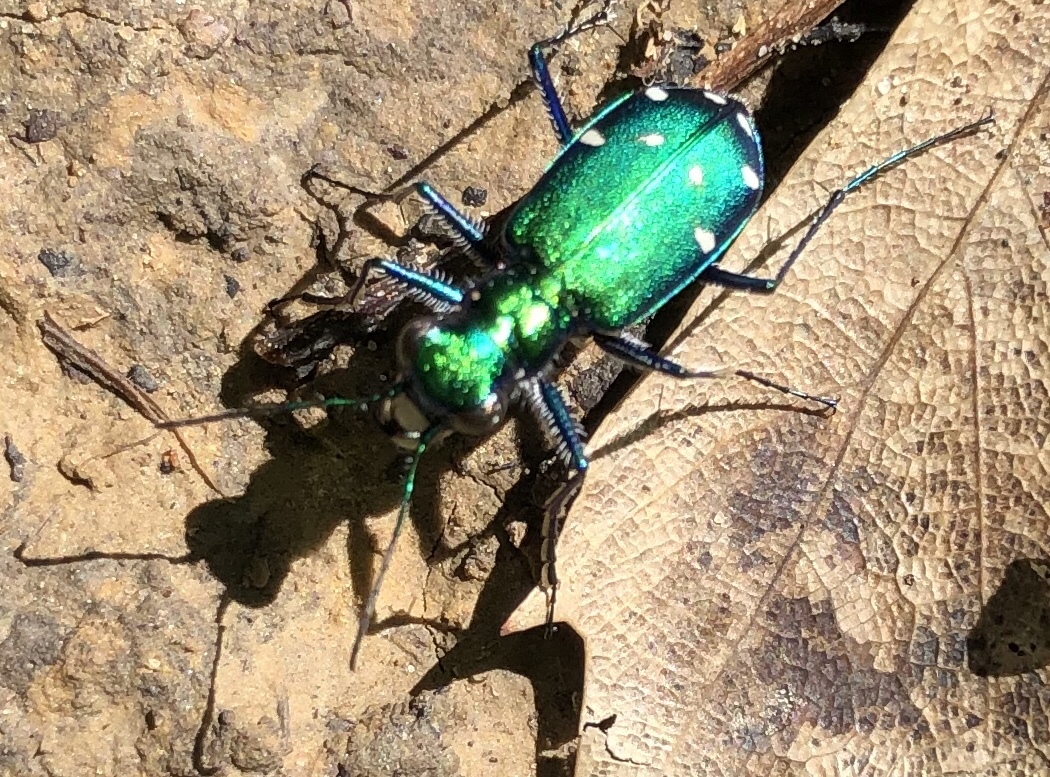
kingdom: Animalia
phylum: Arthropoda
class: Insecta
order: Coleoptera
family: Carabidae
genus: Cicindela
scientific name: Cicindela sexguttata
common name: Six-spotted tiger beetle
